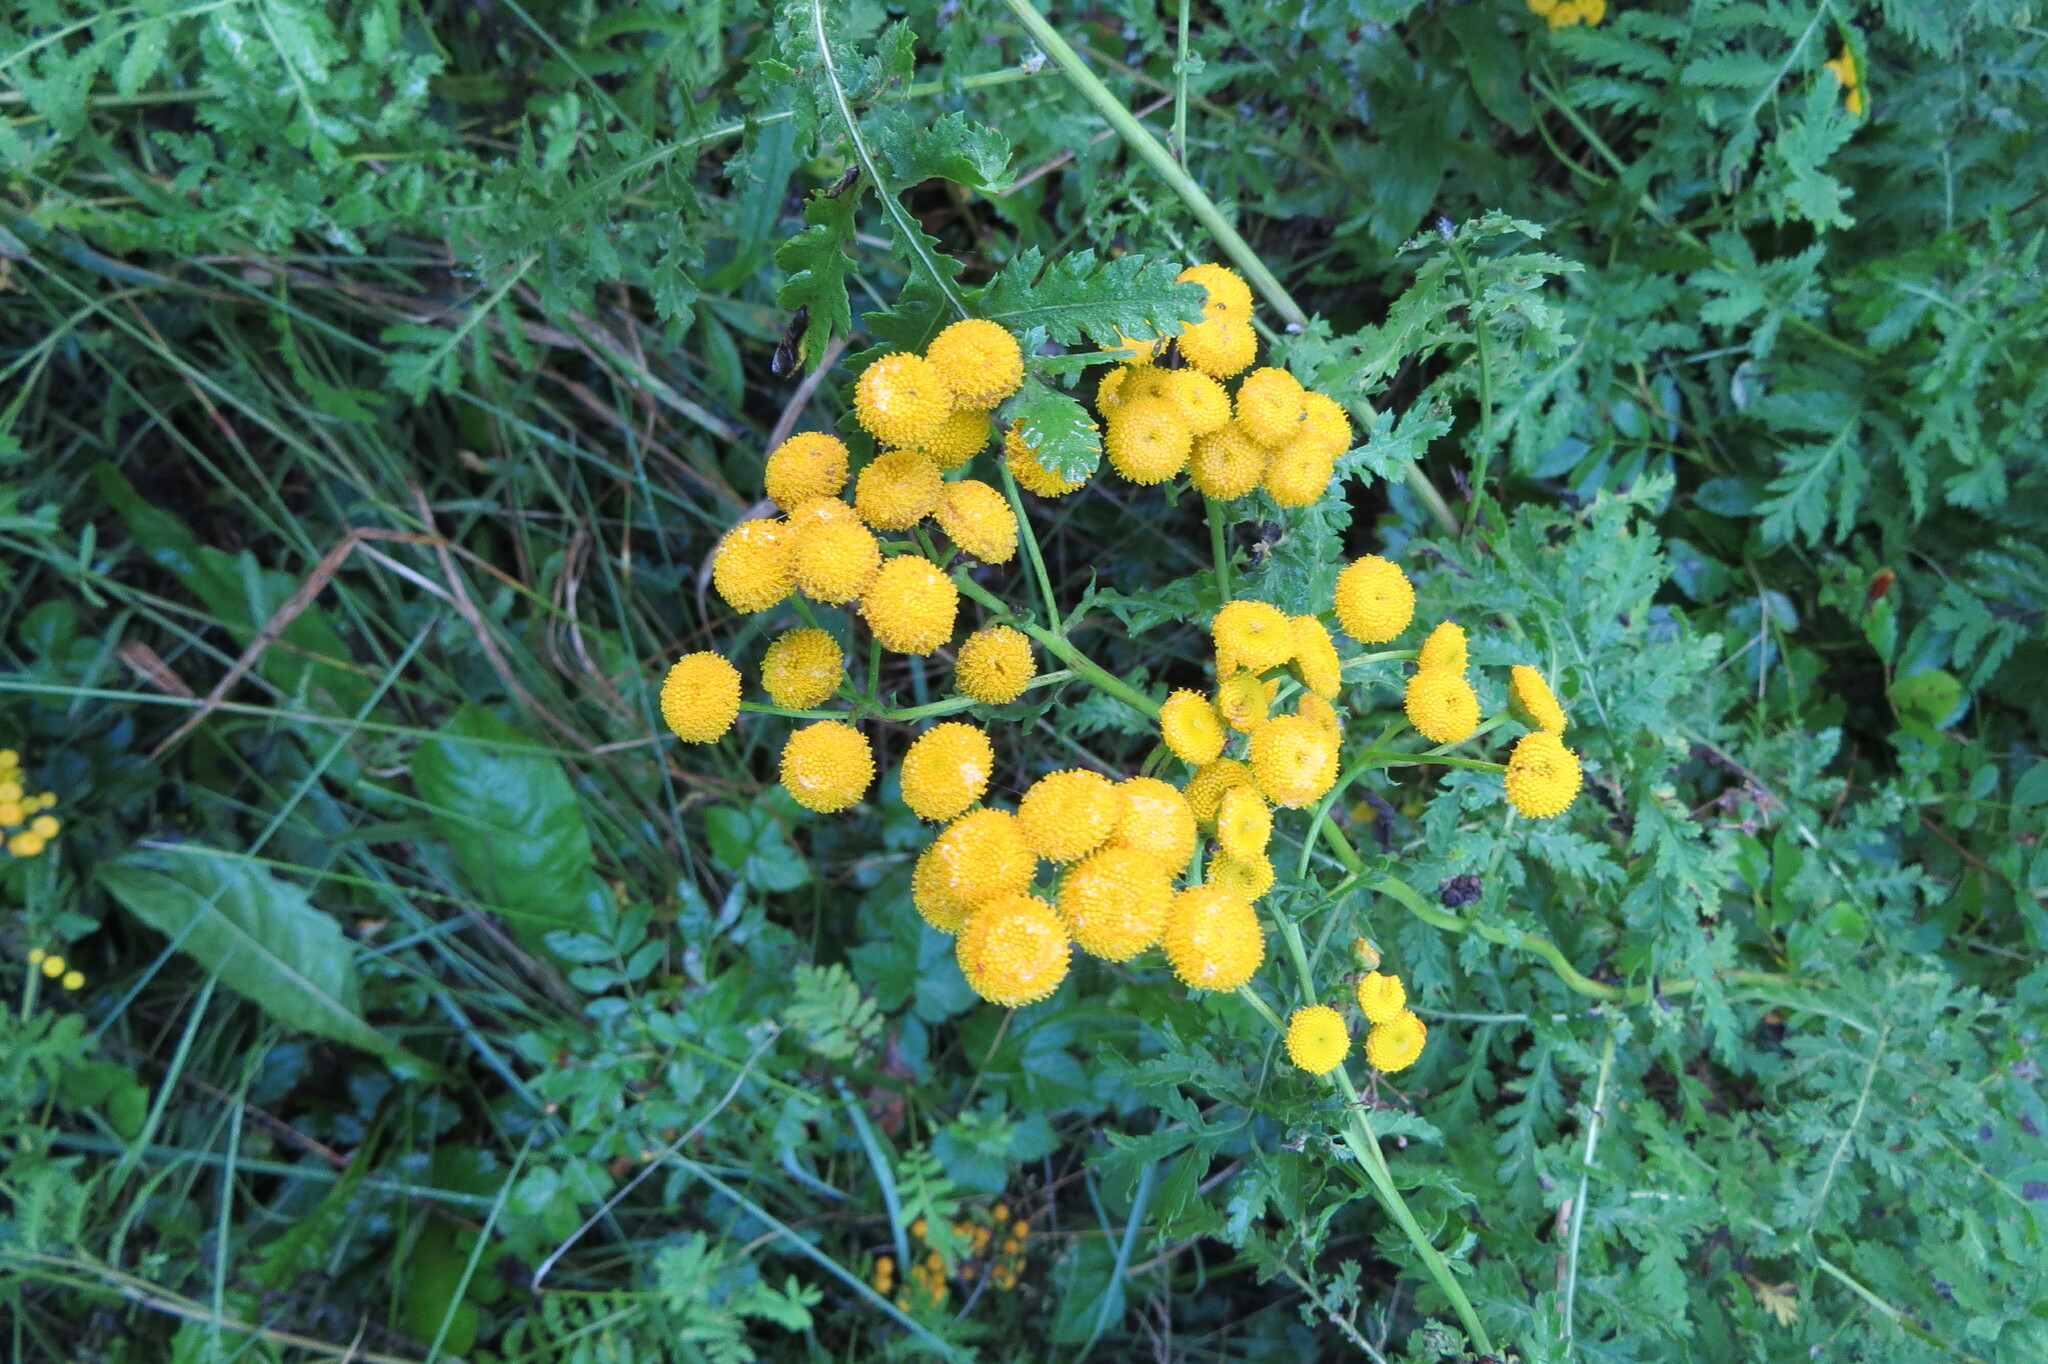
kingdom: Plantae
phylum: Tracheophyta
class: Magnoliopsida
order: Asterales
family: Asteraceae
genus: Tanacetum
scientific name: Tanacetum vulgare
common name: Common tansy
